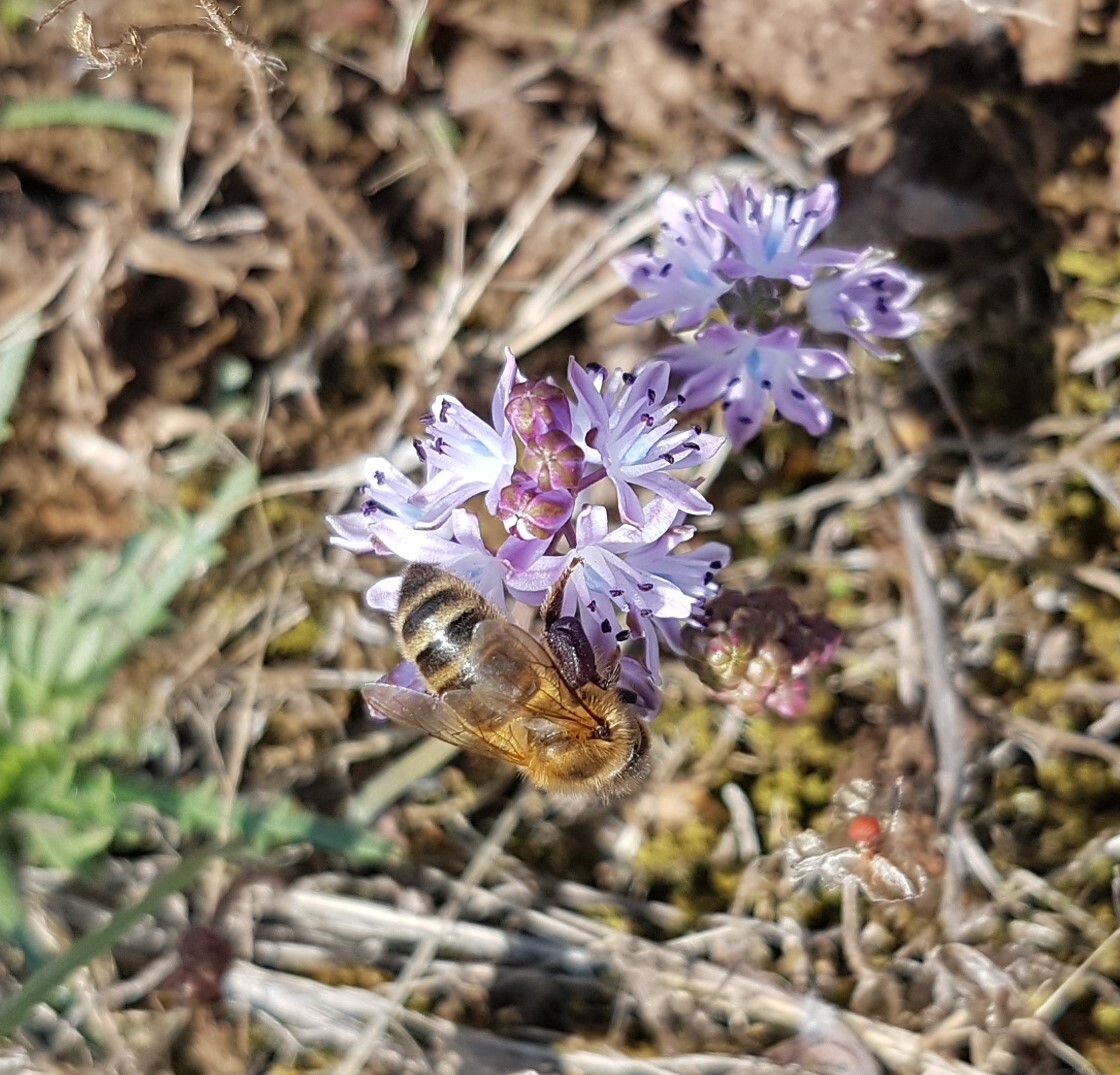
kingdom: Animalia
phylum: Arthropoda
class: Insecta
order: Hymenoptera
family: Apidae
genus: Apis
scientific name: Apis mellifera
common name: Honey bee
